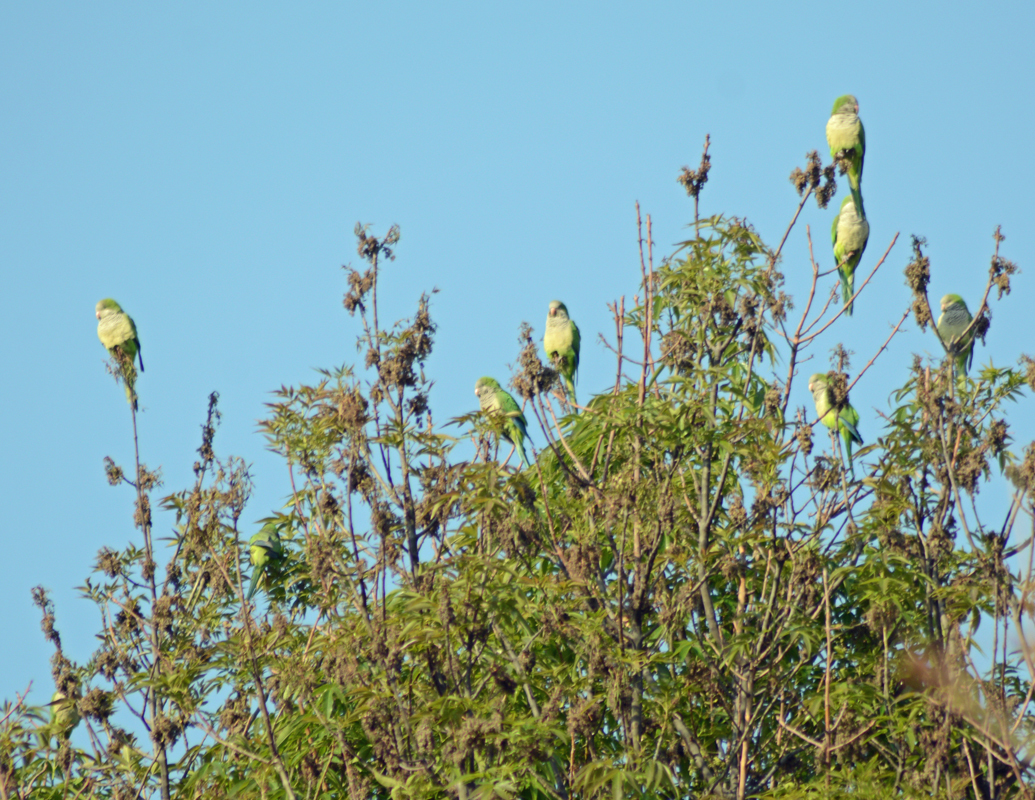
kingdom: Animalia
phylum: Chordata
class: Aves
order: Psittaciformes
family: Psittacidae
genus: Myiopsitta
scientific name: Myiopsitta monachus
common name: Monk parakeet
